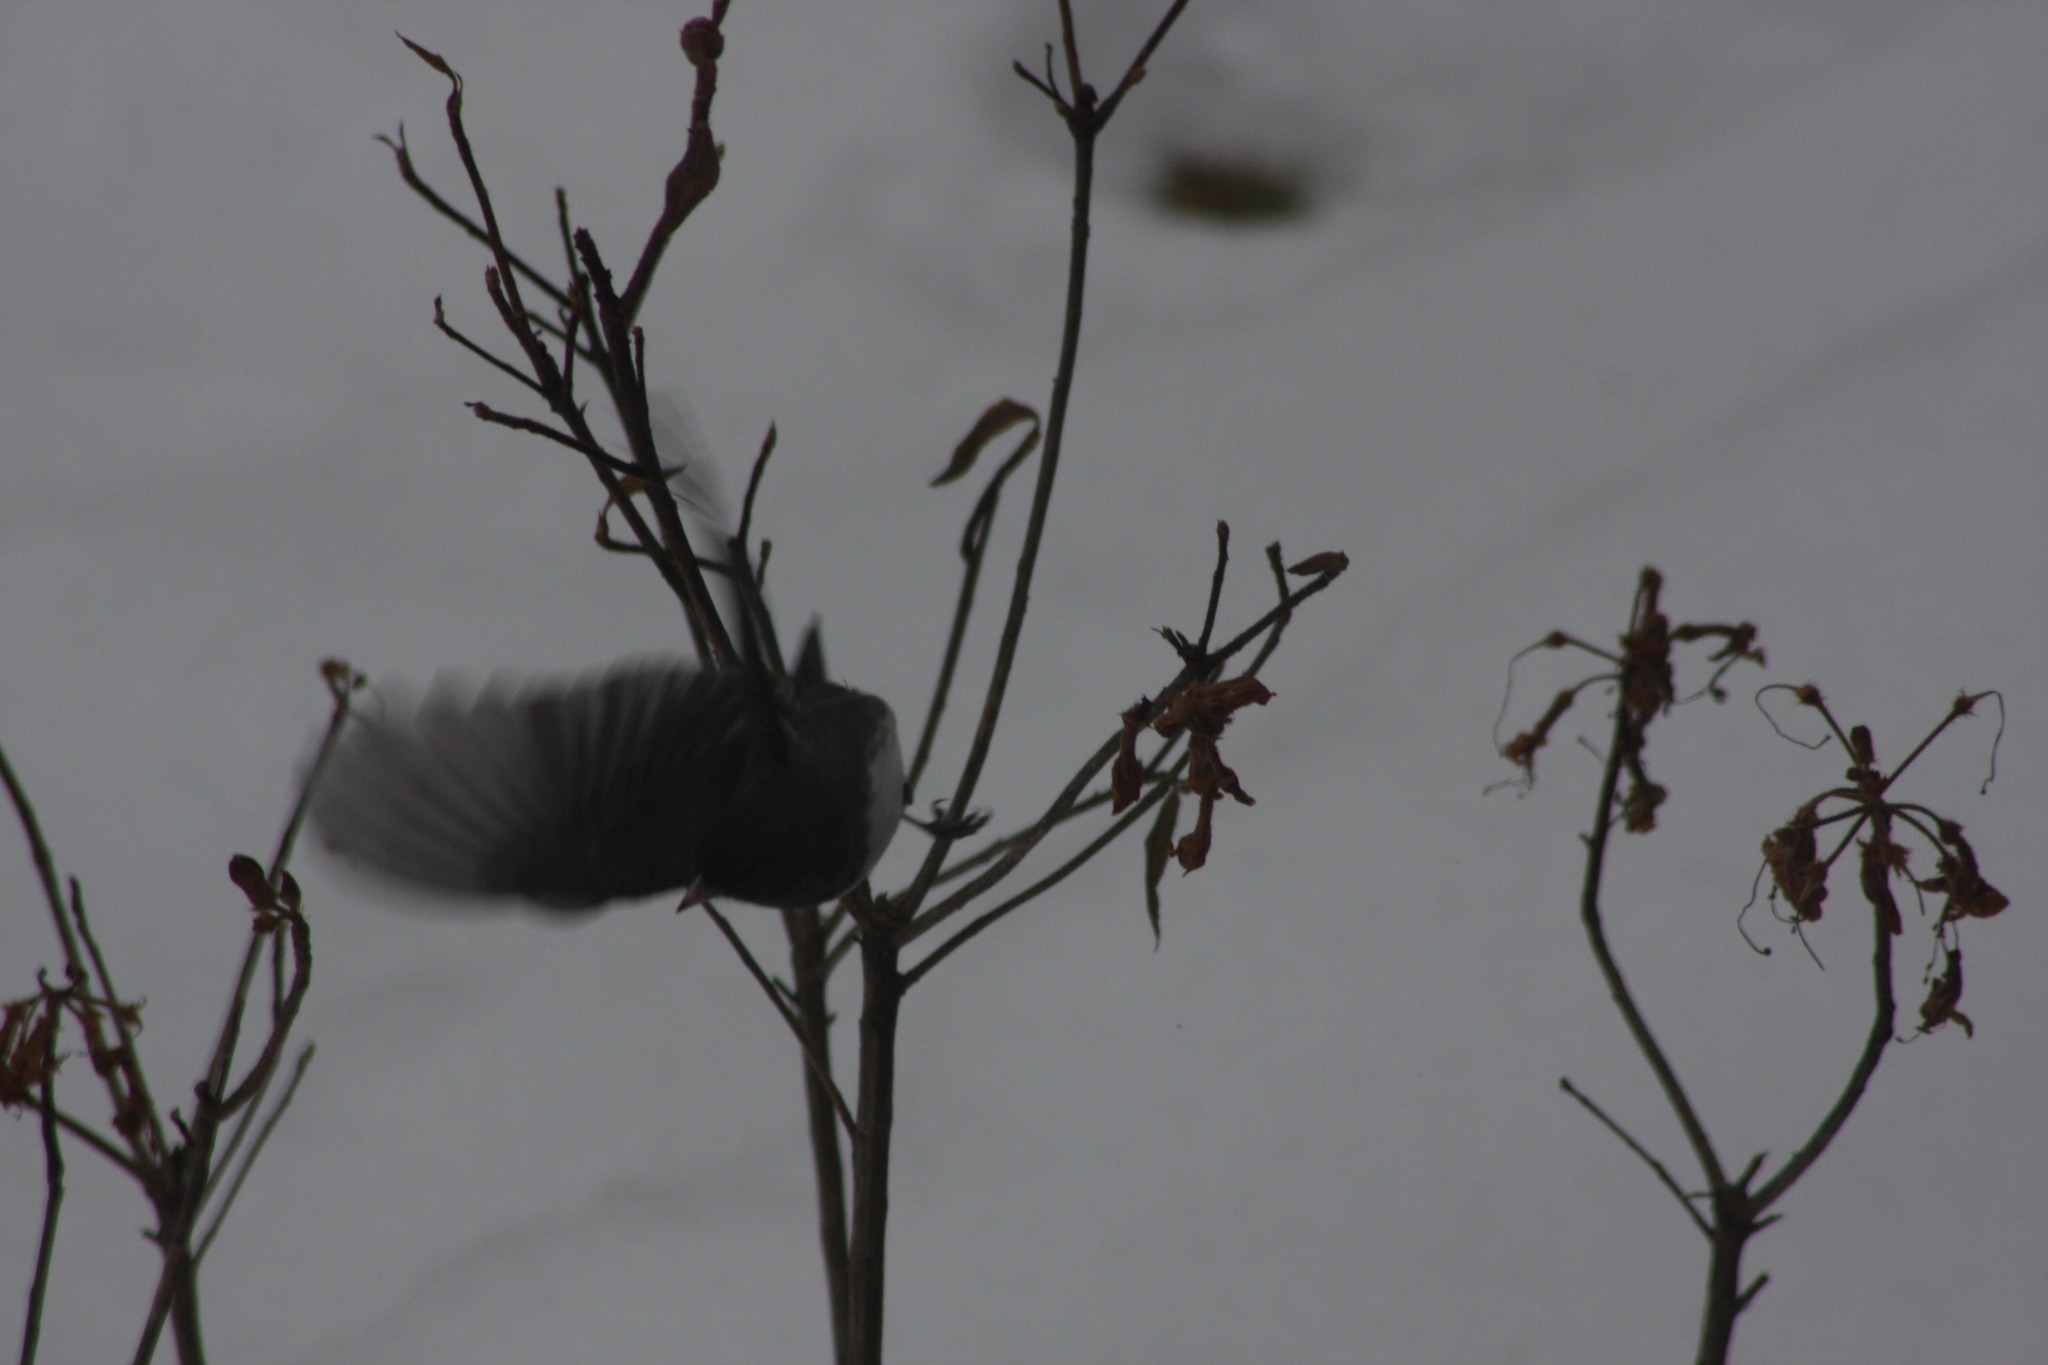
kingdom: Animalia
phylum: Chordata
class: Aves
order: Passeriformes
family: Passerellidae
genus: Junco
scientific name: Junco hyemalis
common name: Dark-eyed junco
